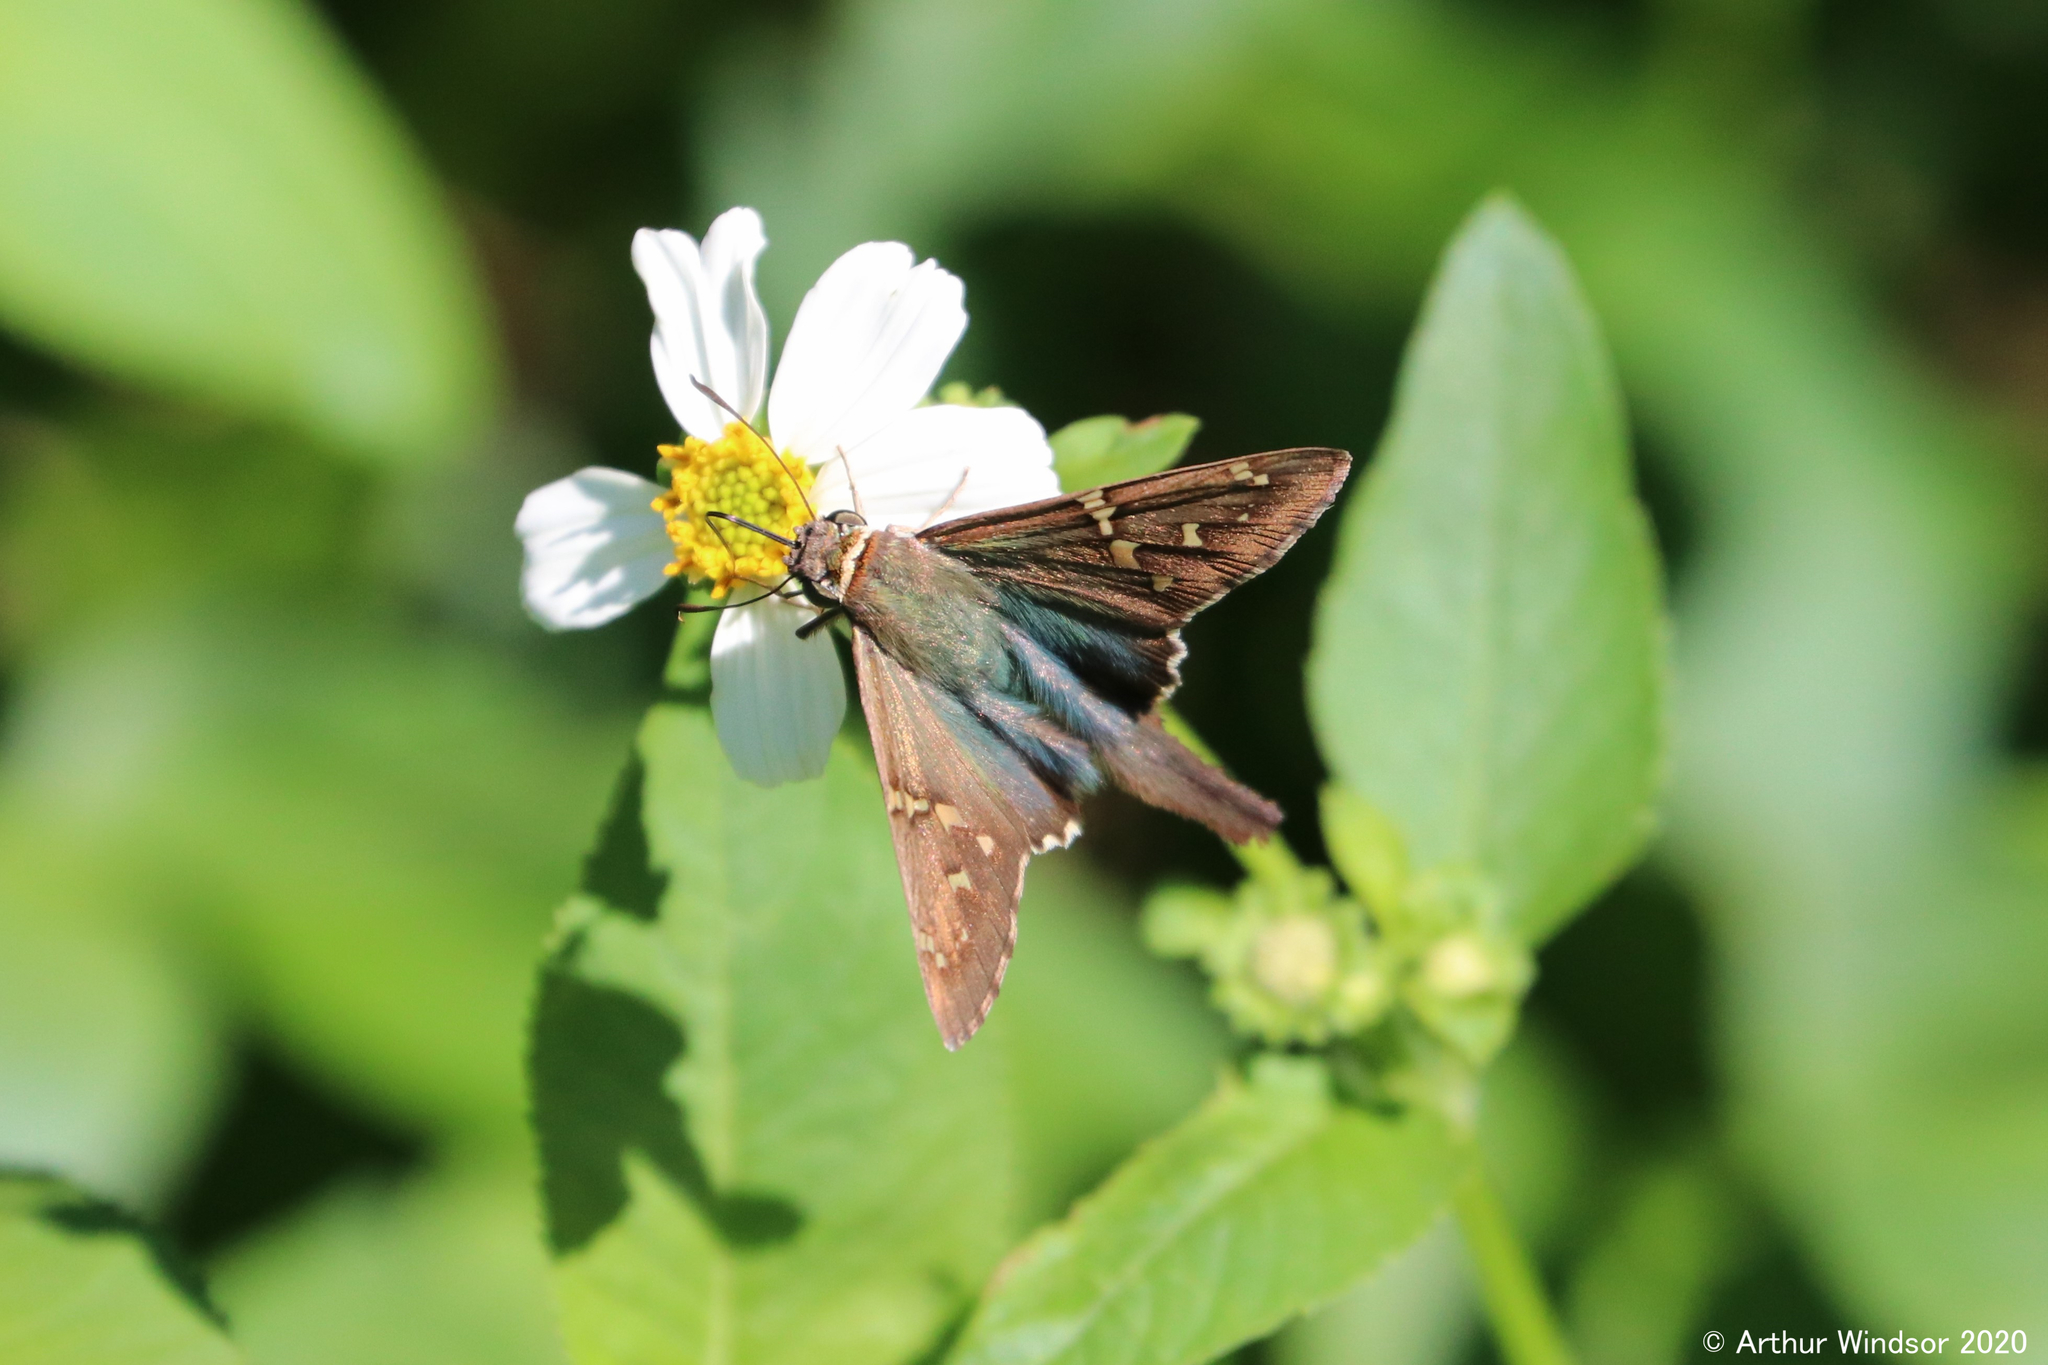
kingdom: Animalia
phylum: Arthropoda
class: Insecta
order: Lepidoptera
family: Hesperiidae
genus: Urbanus
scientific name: Urbanus proteus
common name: Long-tailed skipper
